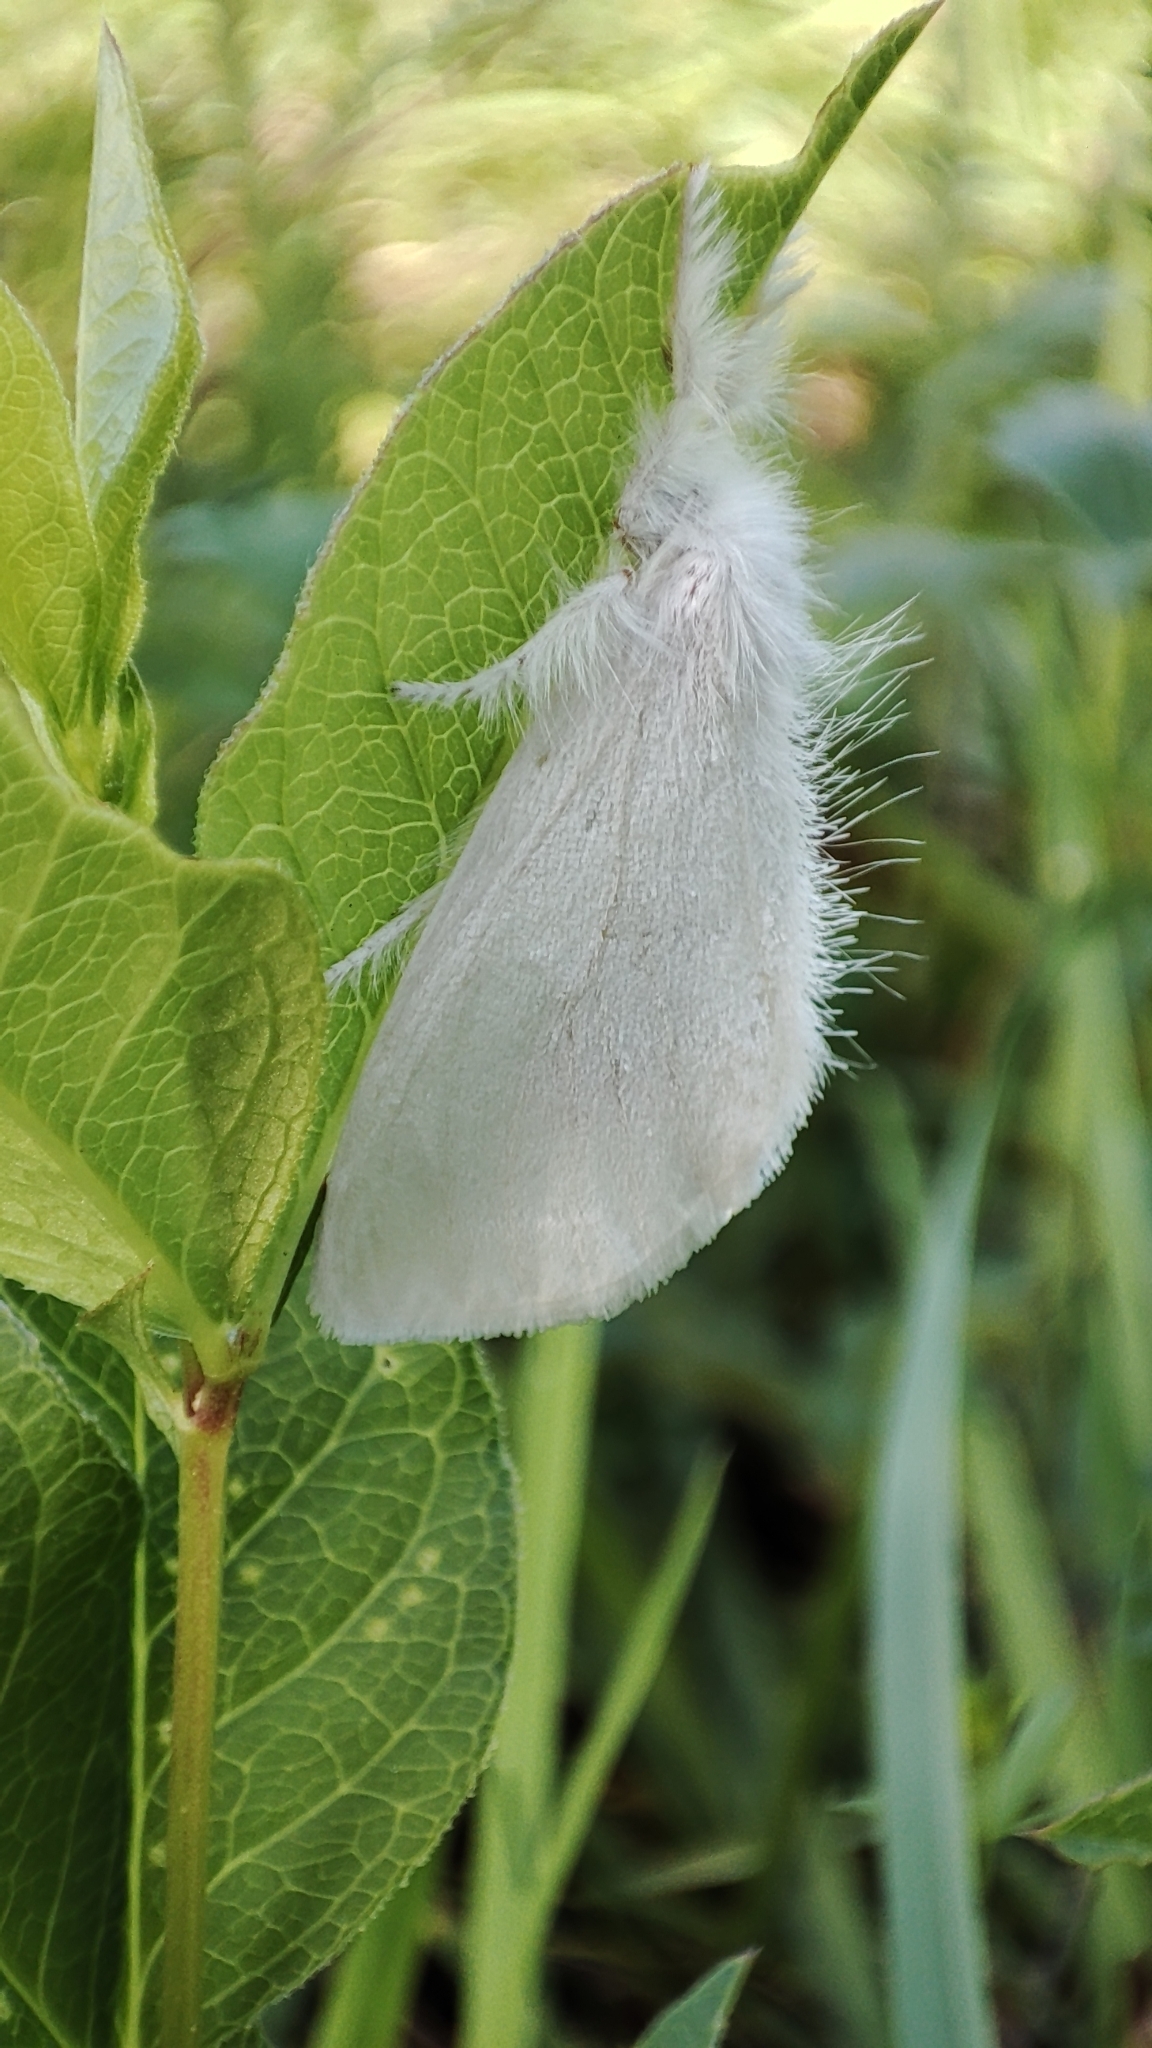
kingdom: Animalia
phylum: Arthropoda
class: Insecta
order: Lepidoptera
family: Erebidae
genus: Sphrageidus
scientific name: Sphrageidus similis
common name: Yellow-tail
